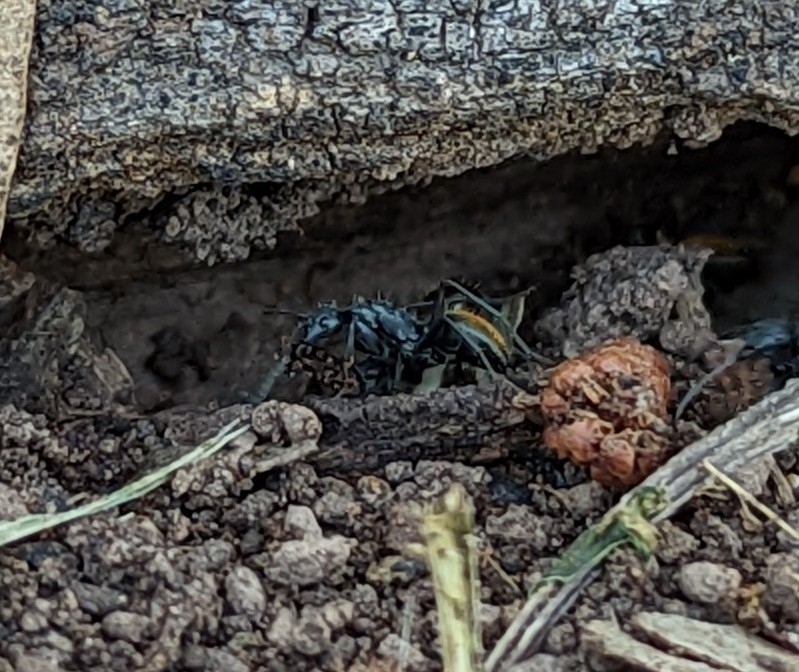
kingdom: Animalia
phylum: Arthropoda
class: Insecta
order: Hymenoptera
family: Formicidae
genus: Camponotus
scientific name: Camponotus aeneopilosus
